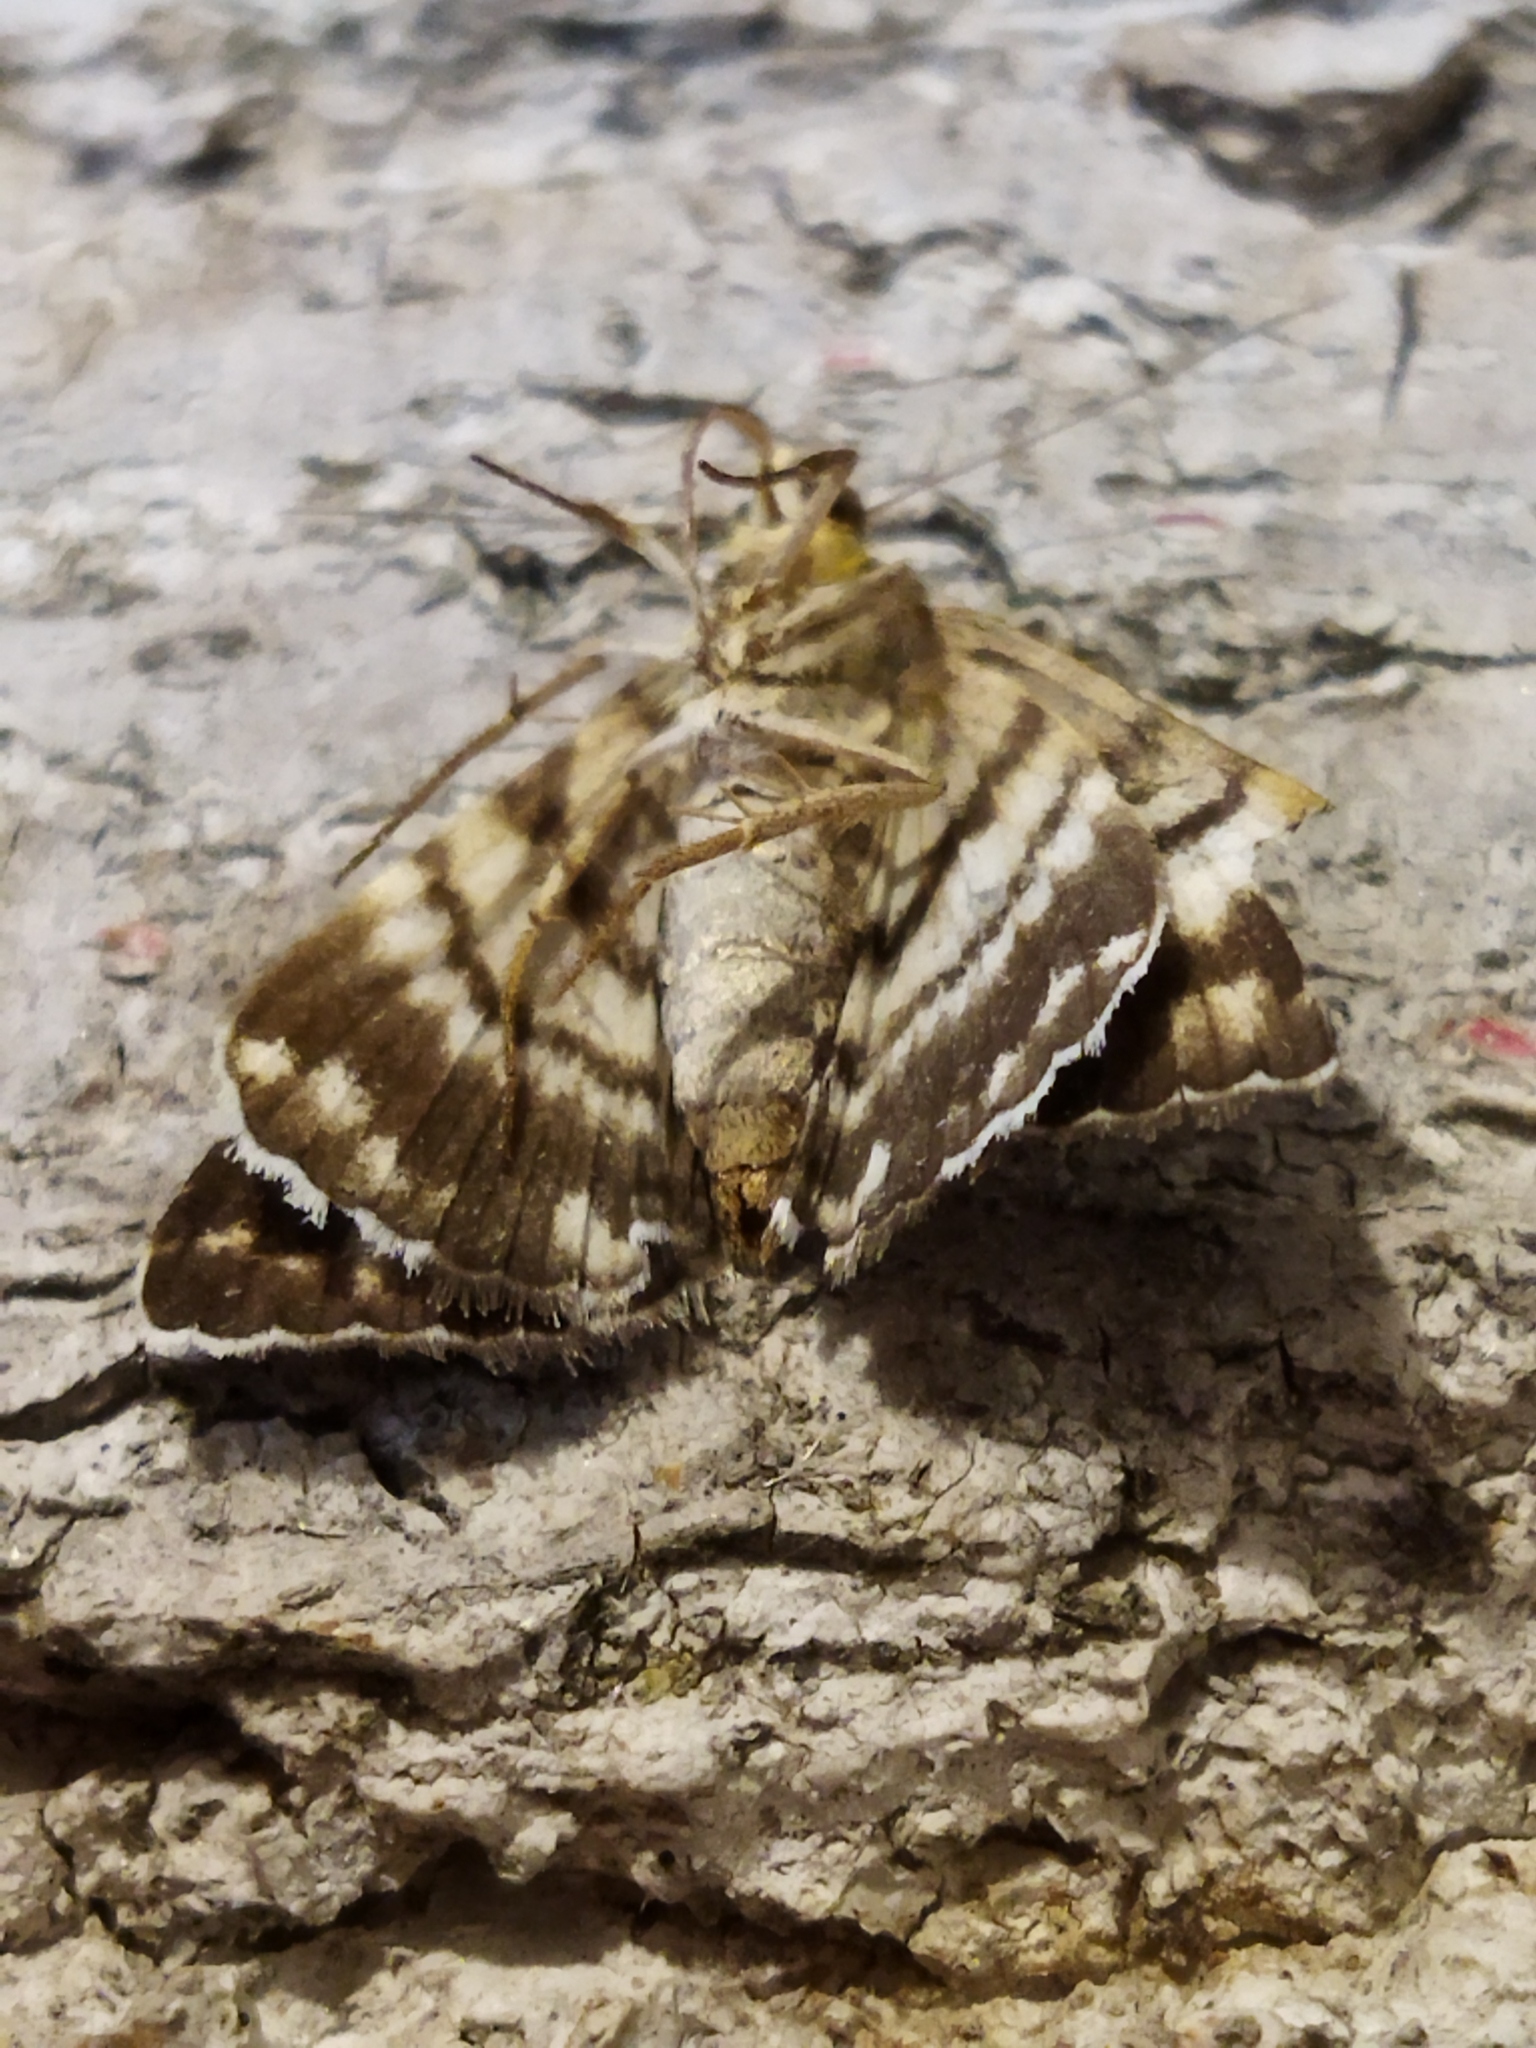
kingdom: Animalia
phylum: Arthropoda
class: Insecta
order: Lepidoptera
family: Erebidae
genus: Grammodes
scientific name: Grammodes stolida
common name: Geometrician
